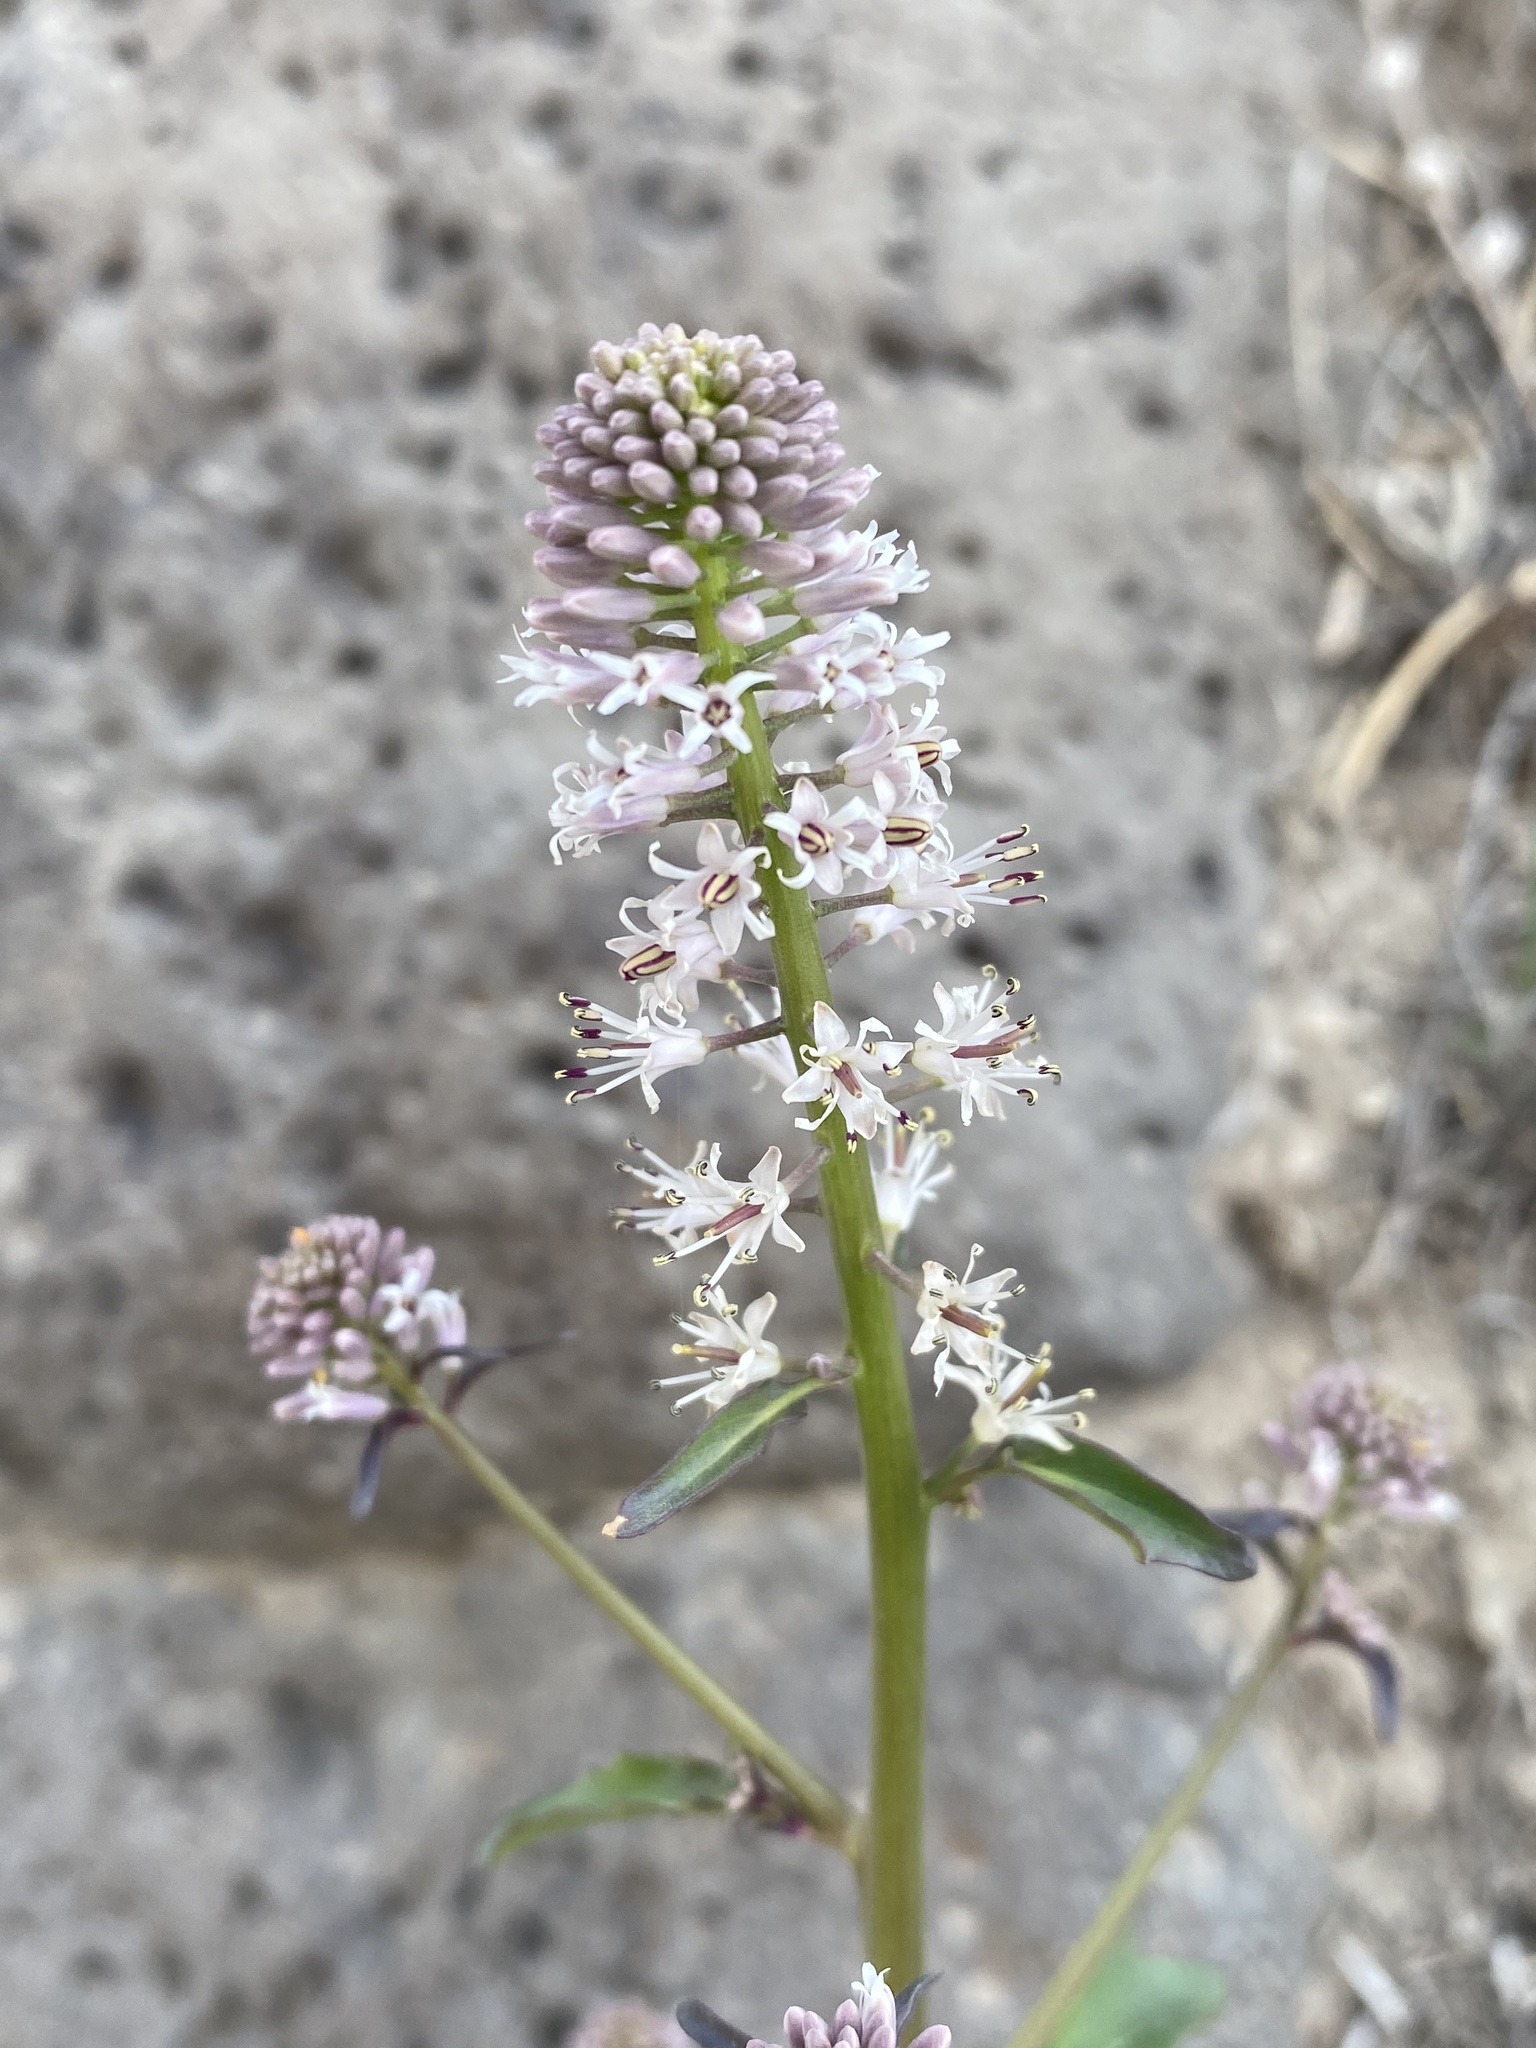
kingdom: Plantae
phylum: Tracheophyta
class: Magnoliopsida
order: Brassicales
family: Brassicaceae
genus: Thelypodium
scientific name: Thelypodium laciniatum
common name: Cut-leaved thelypody
